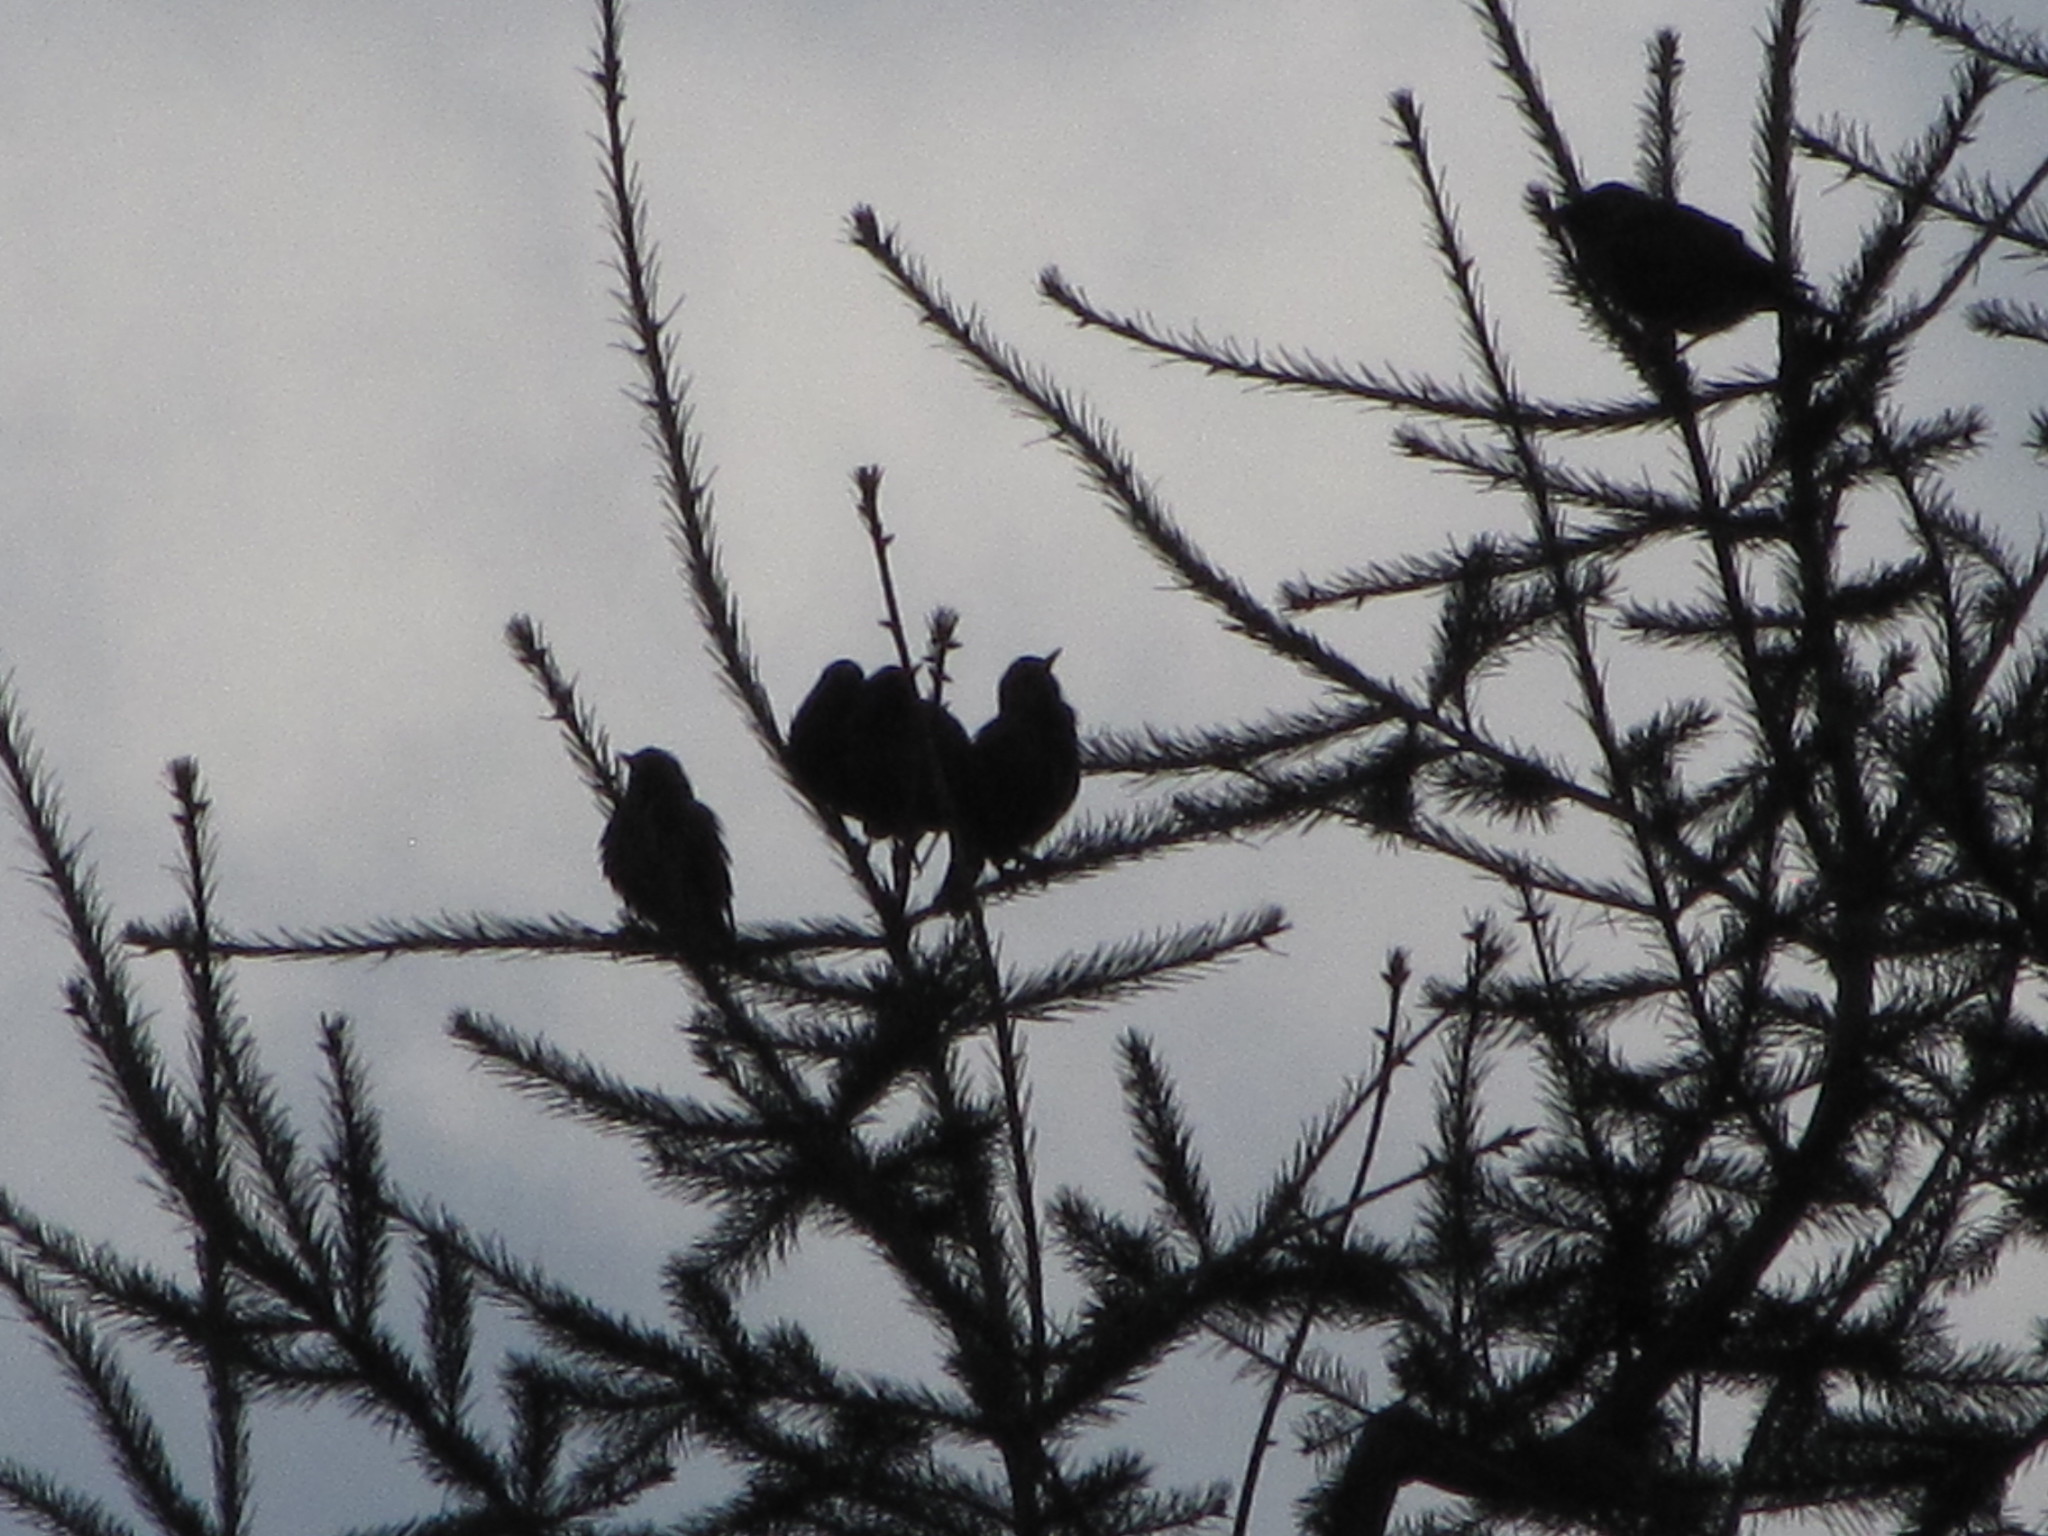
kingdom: Animalia
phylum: Chordata
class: Aves
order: Passeriformes
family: Sturnidae
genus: Sturnus
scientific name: Sturnus vulgaris
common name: Common starling
